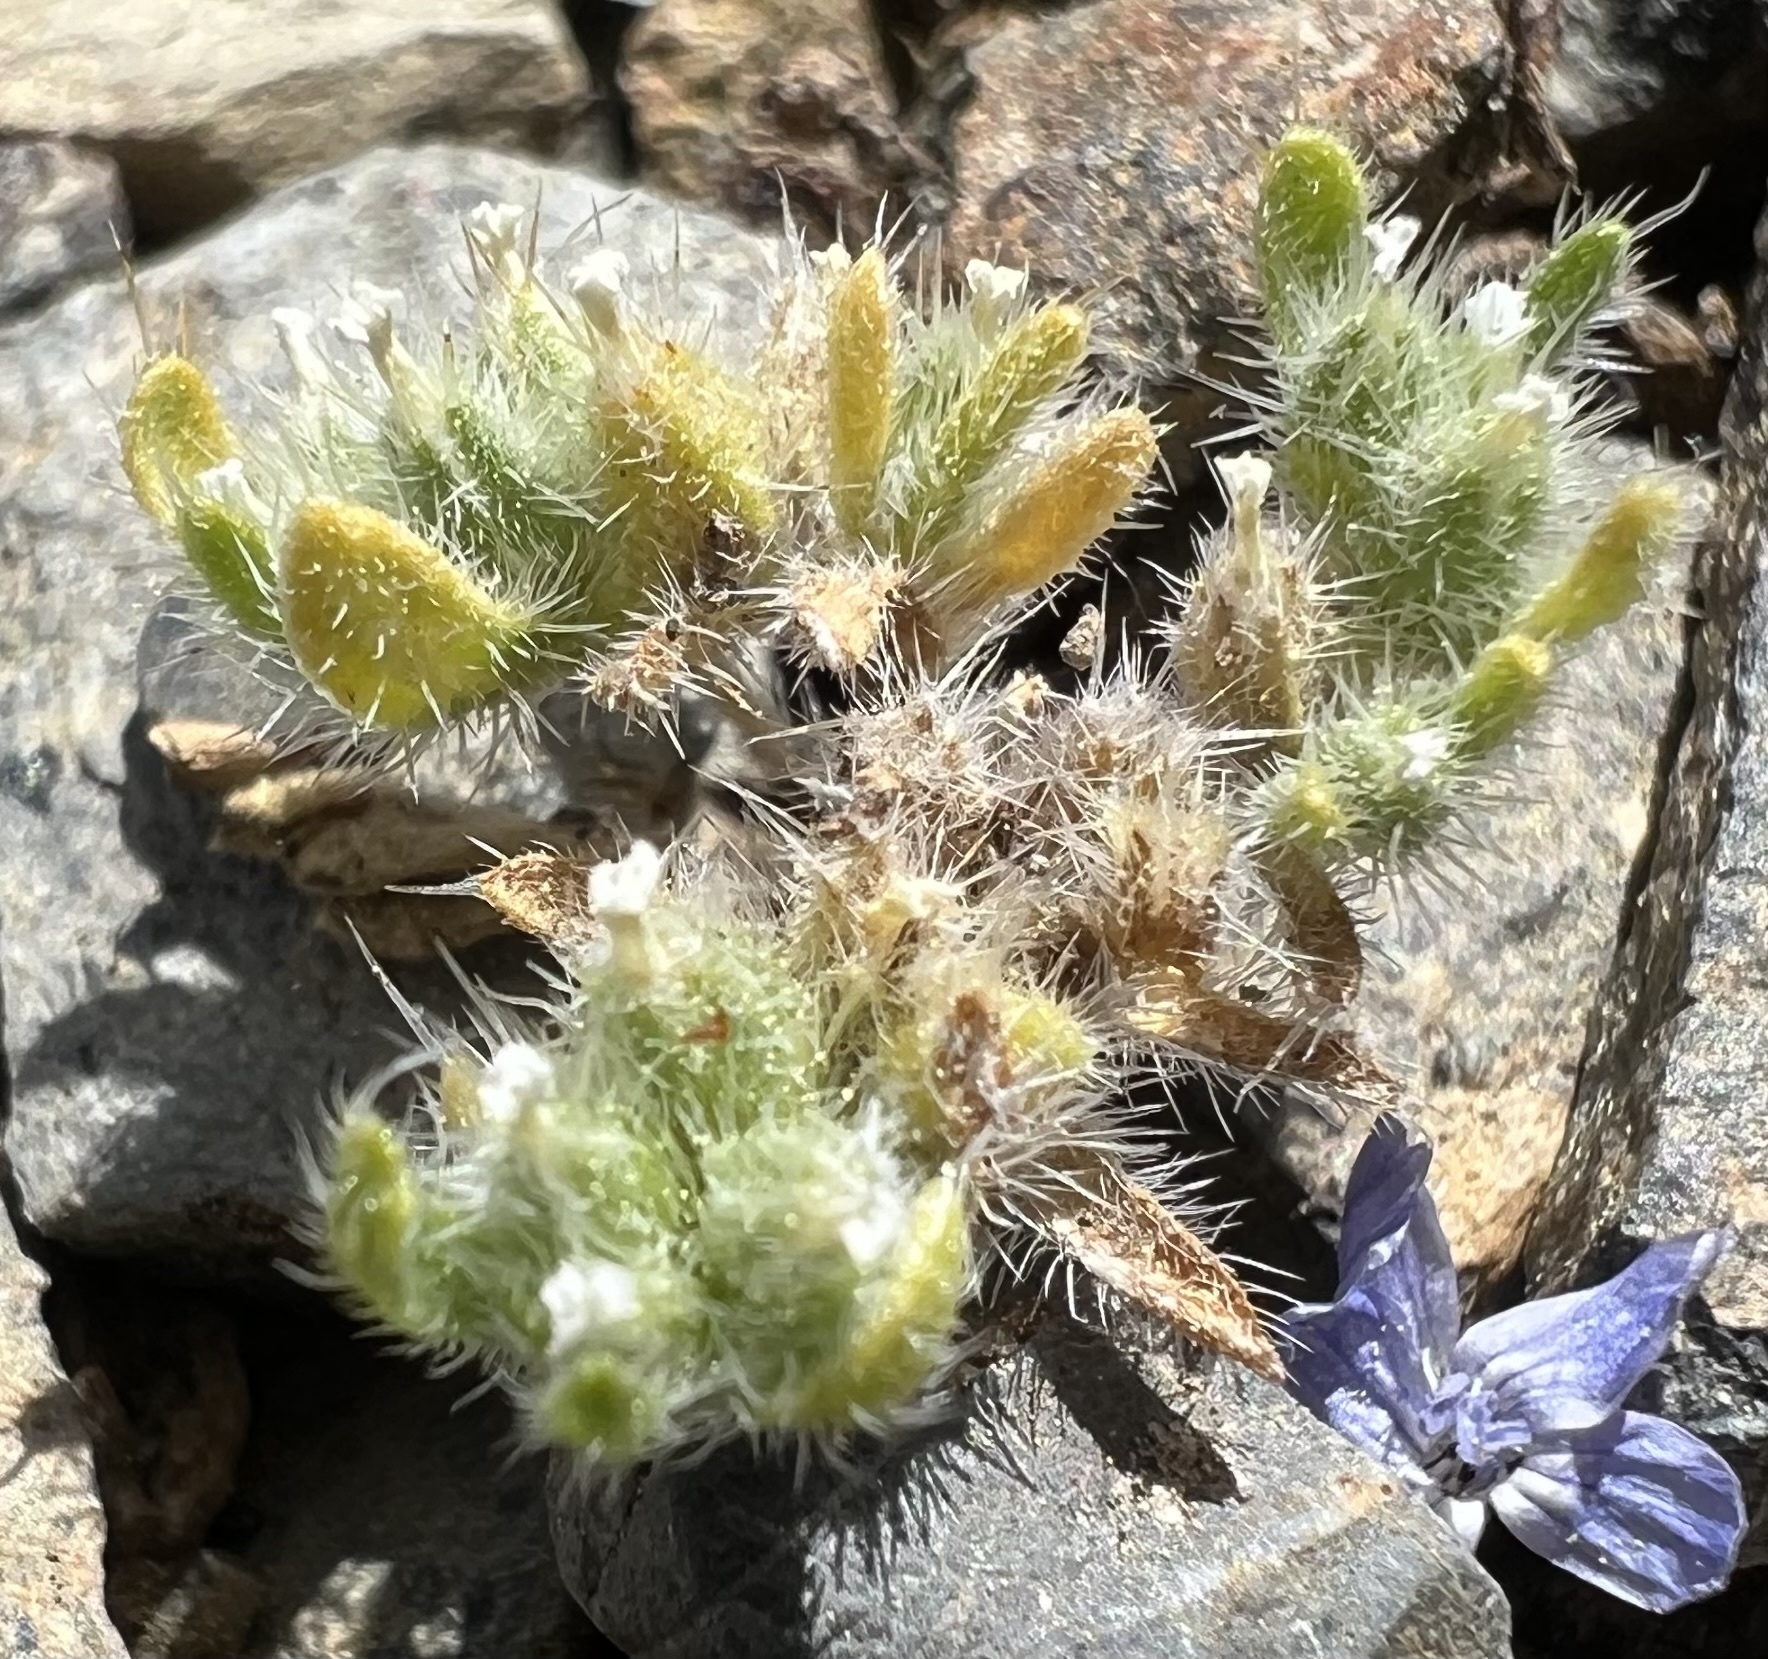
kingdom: Plantae
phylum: Tracheophyta
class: Magnoliopsida
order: Boraginales
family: Boraginaceae
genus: Greeneocharis
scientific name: Greeneocharis circumscissa
